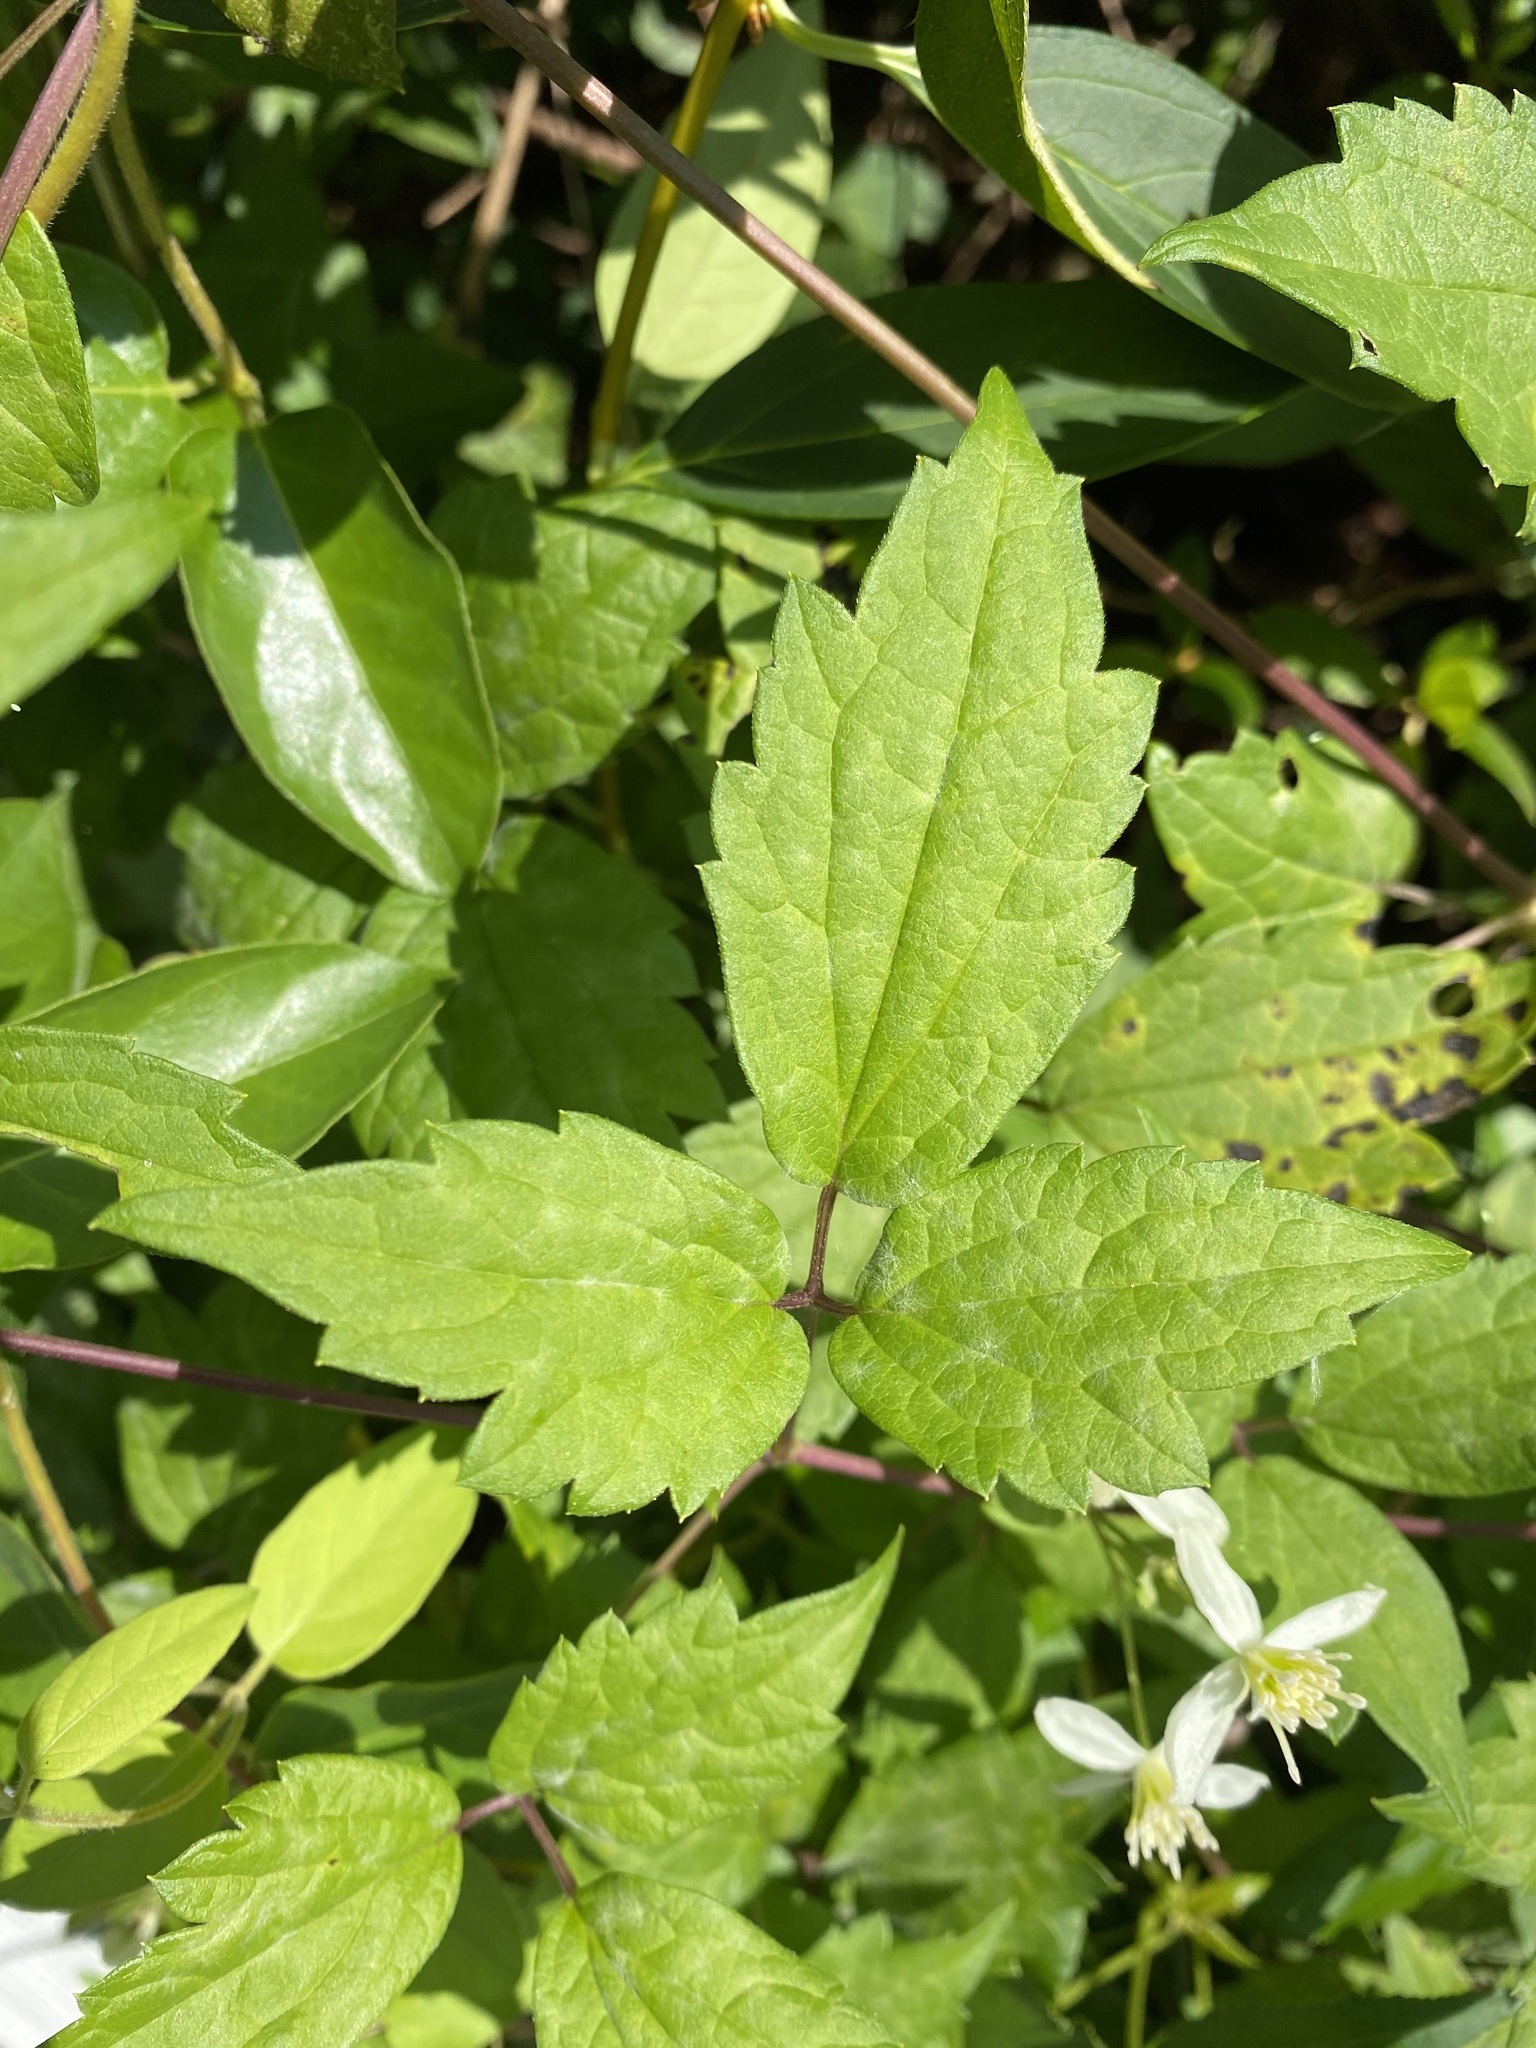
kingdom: Plantae
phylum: Tracheophyta
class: Magnoliopsida
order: Ranunculales
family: Ranunculaceae
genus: Clematis
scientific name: Clematis virginiana
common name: Virgin's-bower
